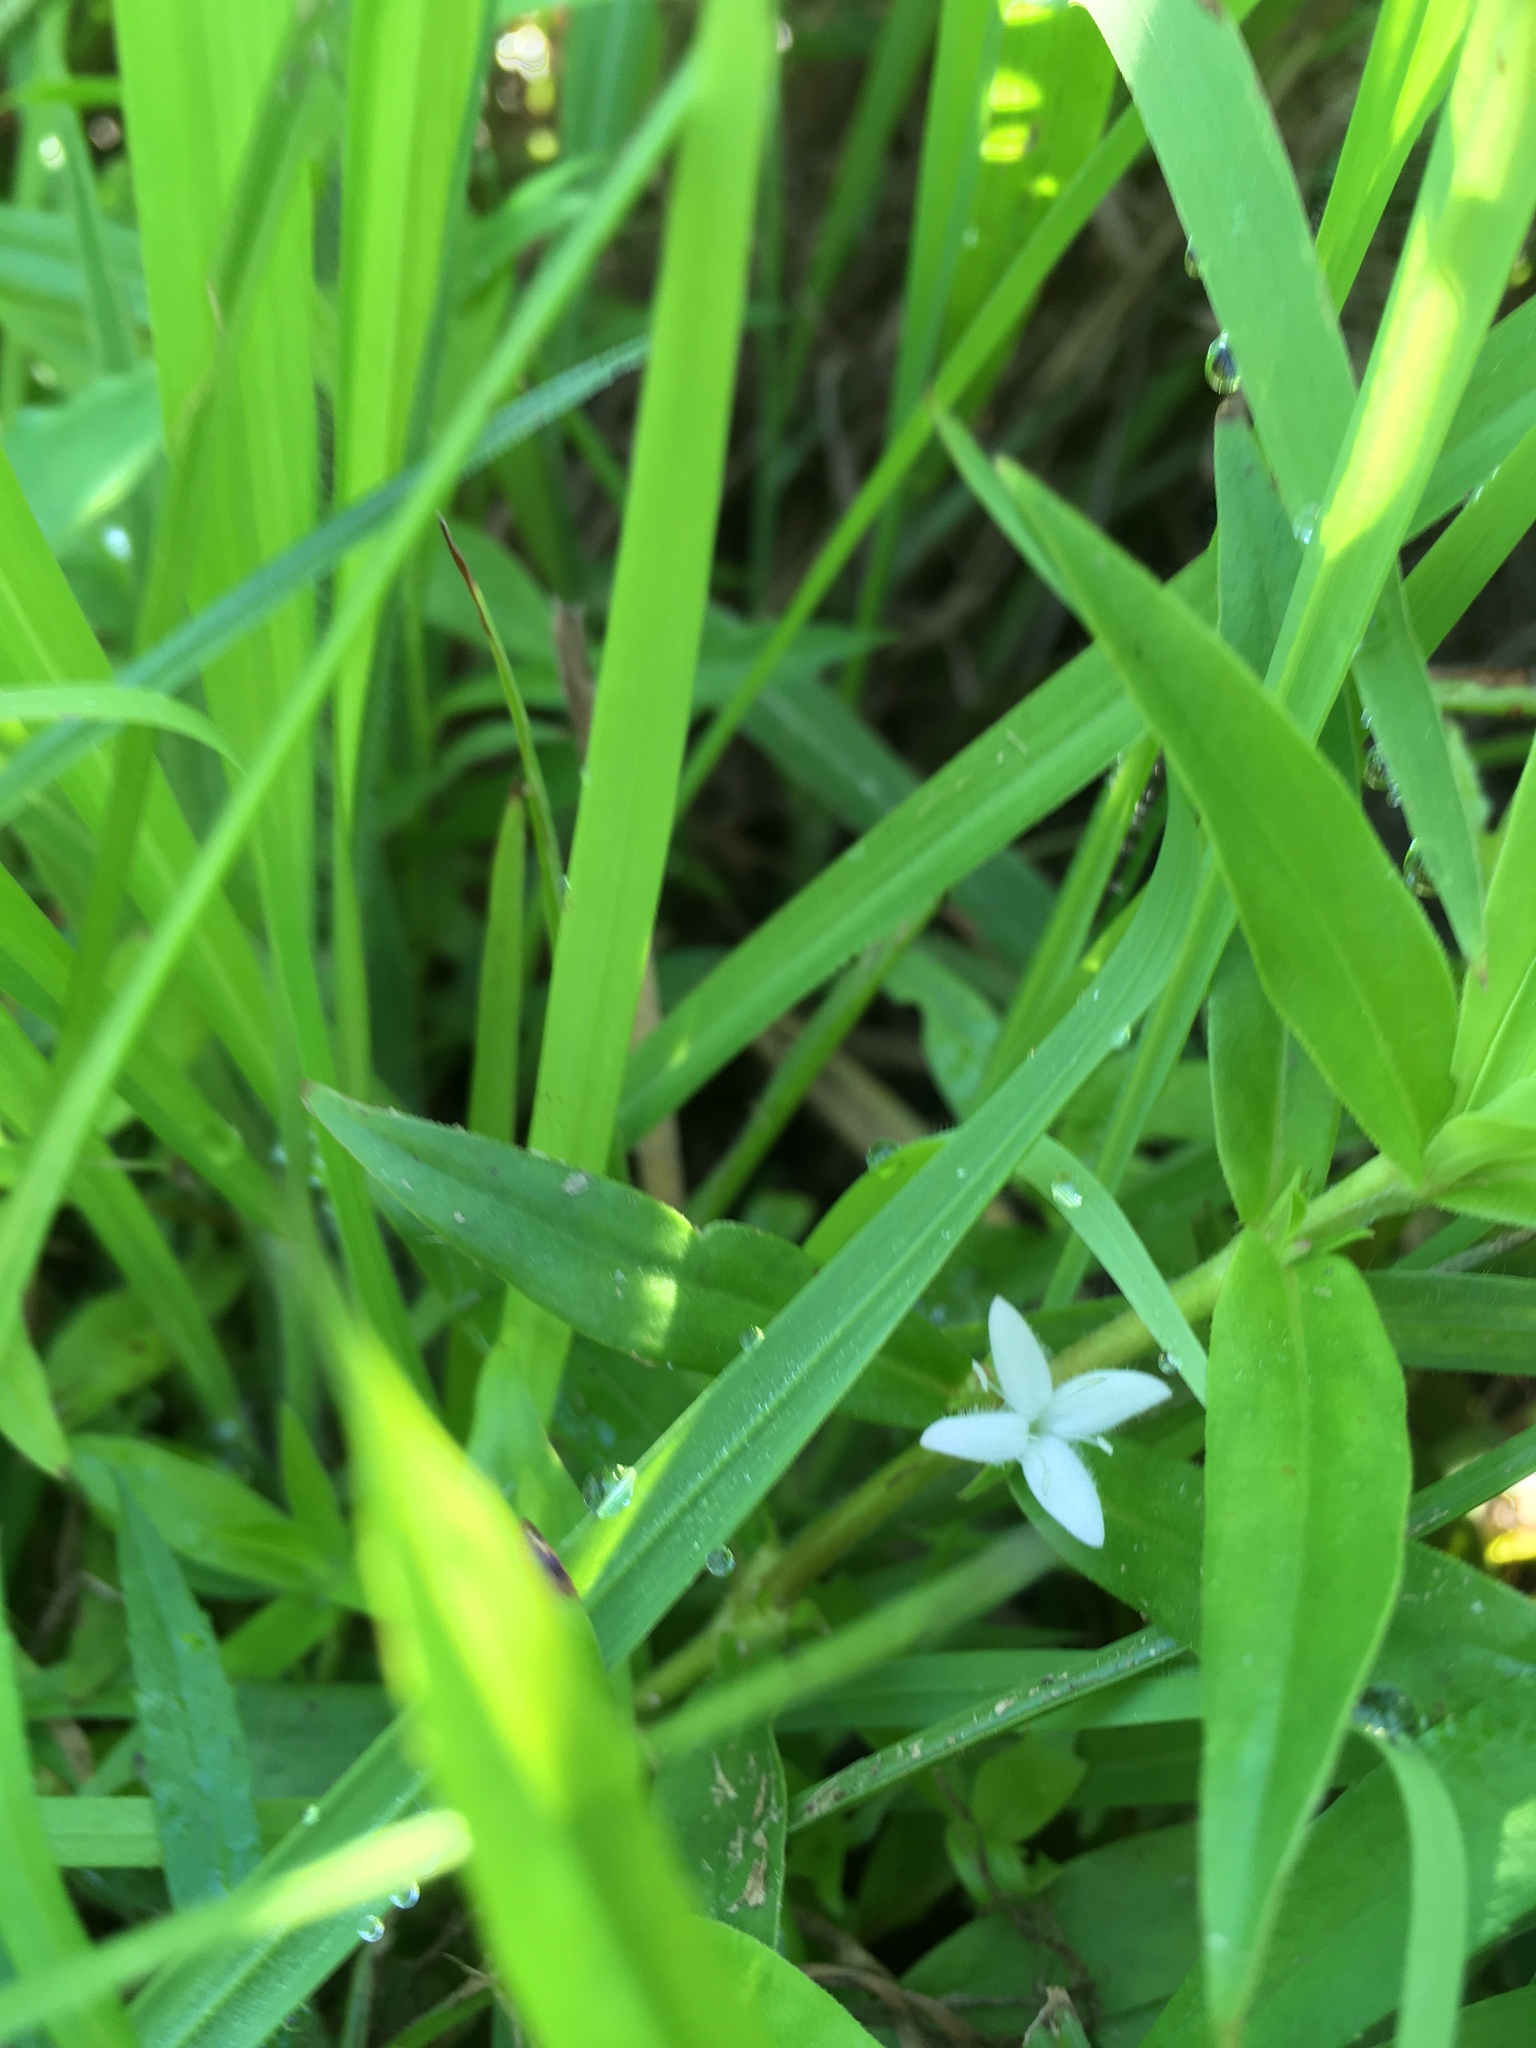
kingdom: Plantae
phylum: Tracheophyta
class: Magnoliopsida
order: Gentianales
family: Rubiaceae
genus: Diodia
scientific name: Diodia virginiana
